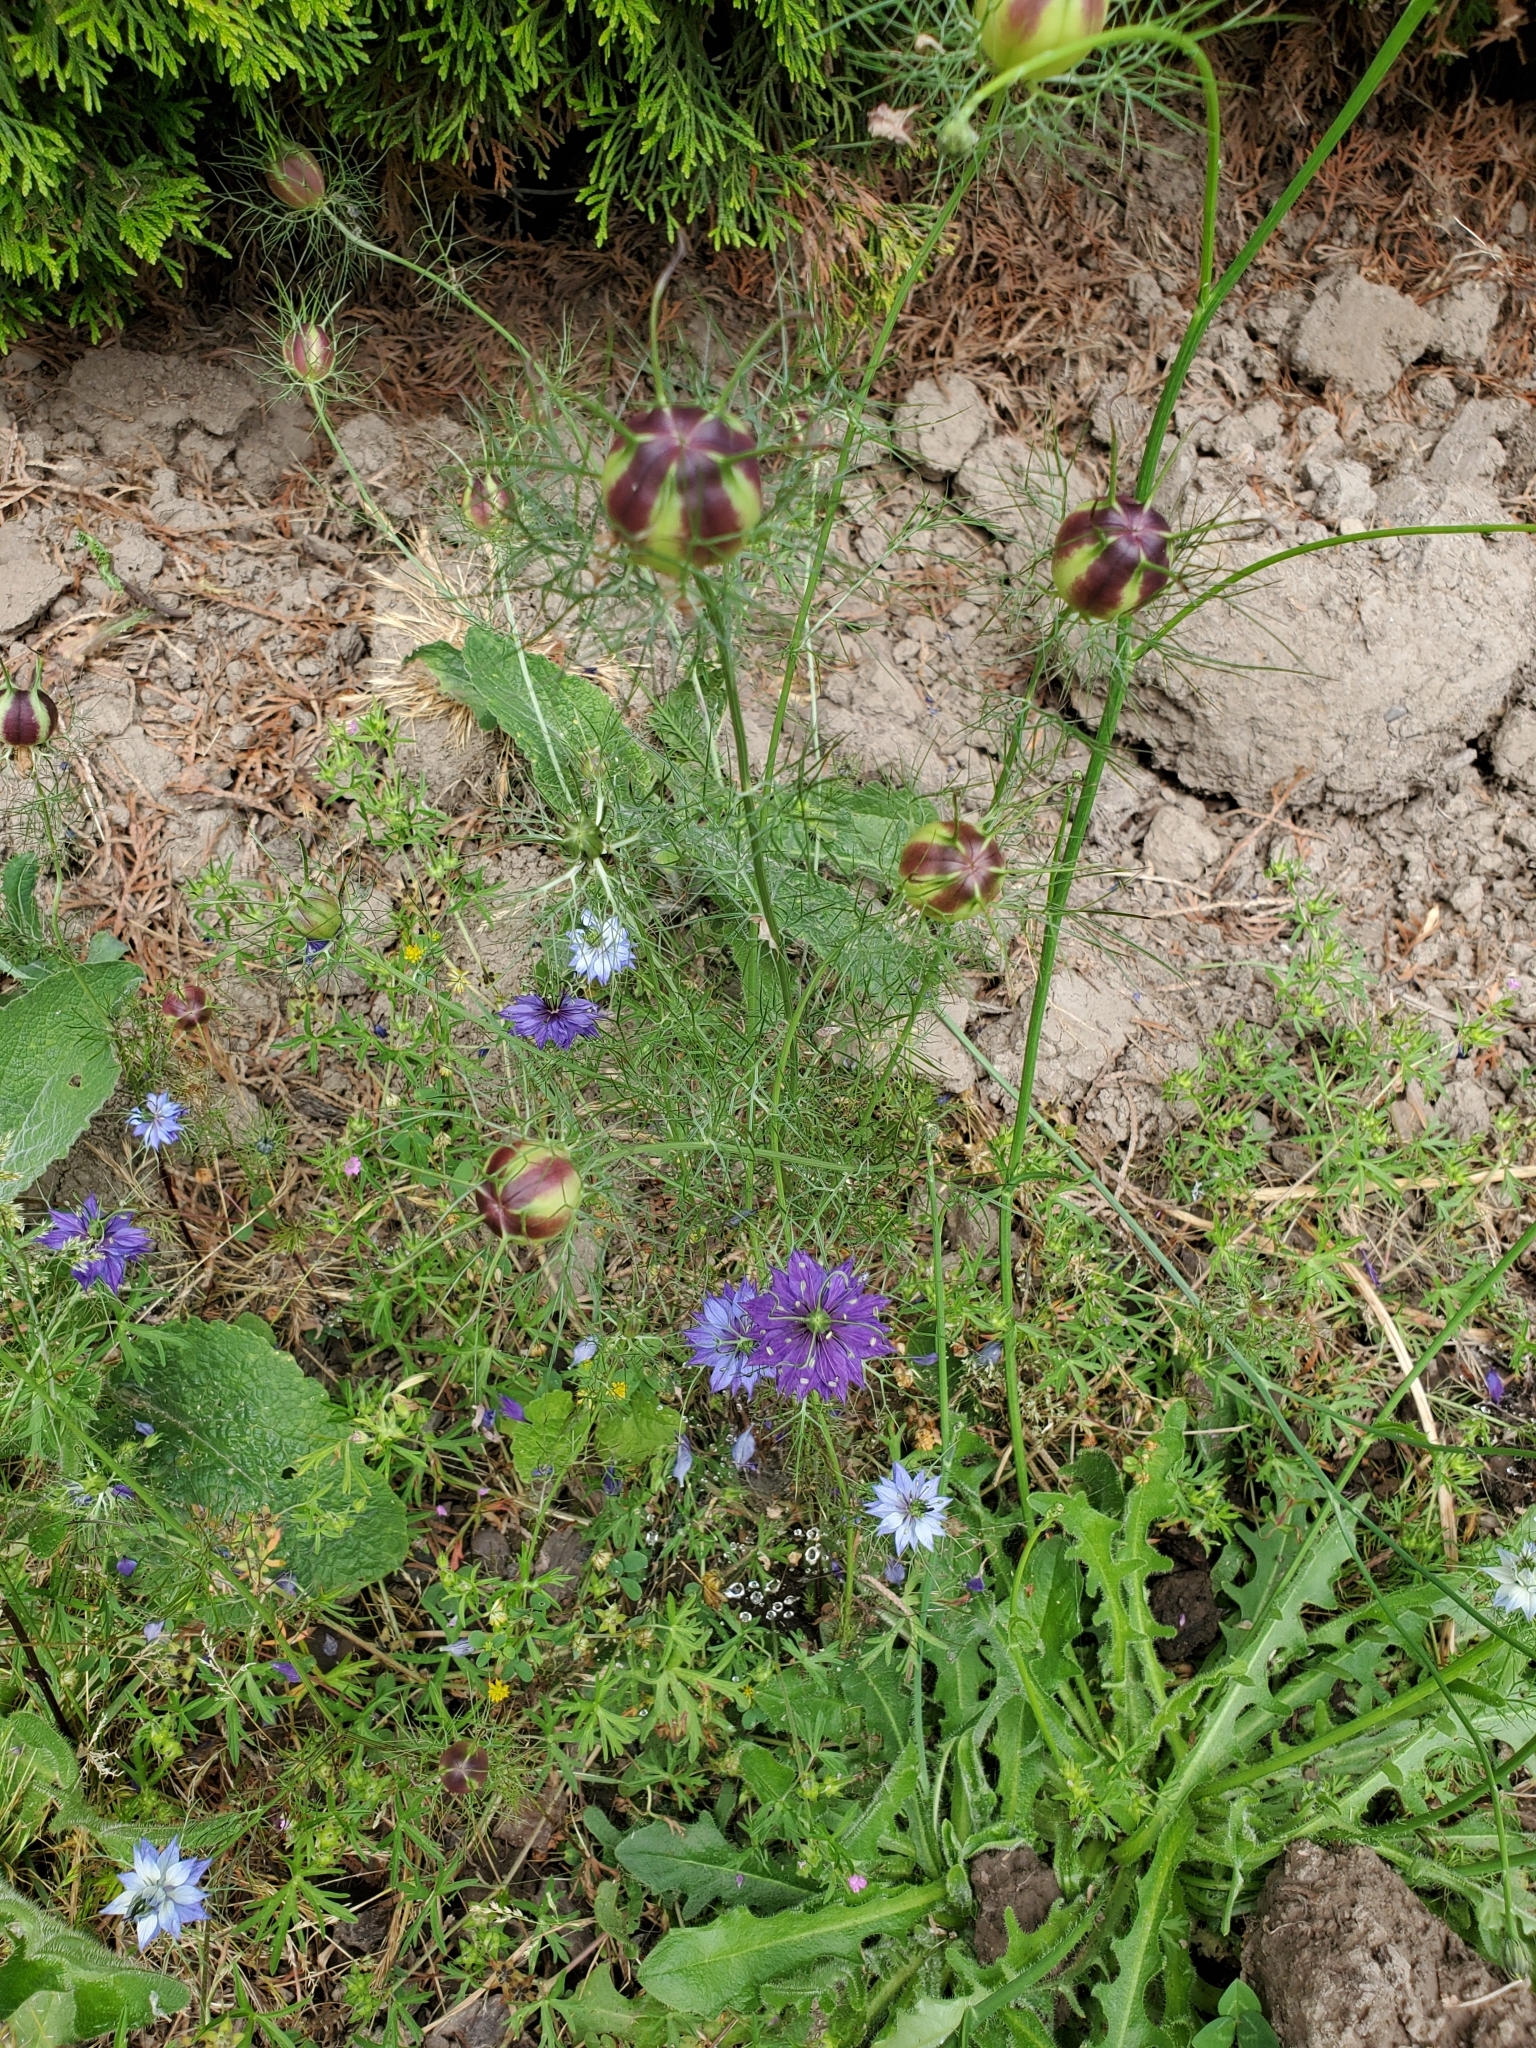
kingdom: Plantae
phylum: Tracheophyta
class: Magnoliopsida
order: Ranunculales
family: Ranunculaceae
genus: Nigella
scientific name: Nigella damascena
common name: Love-in-a-mist
